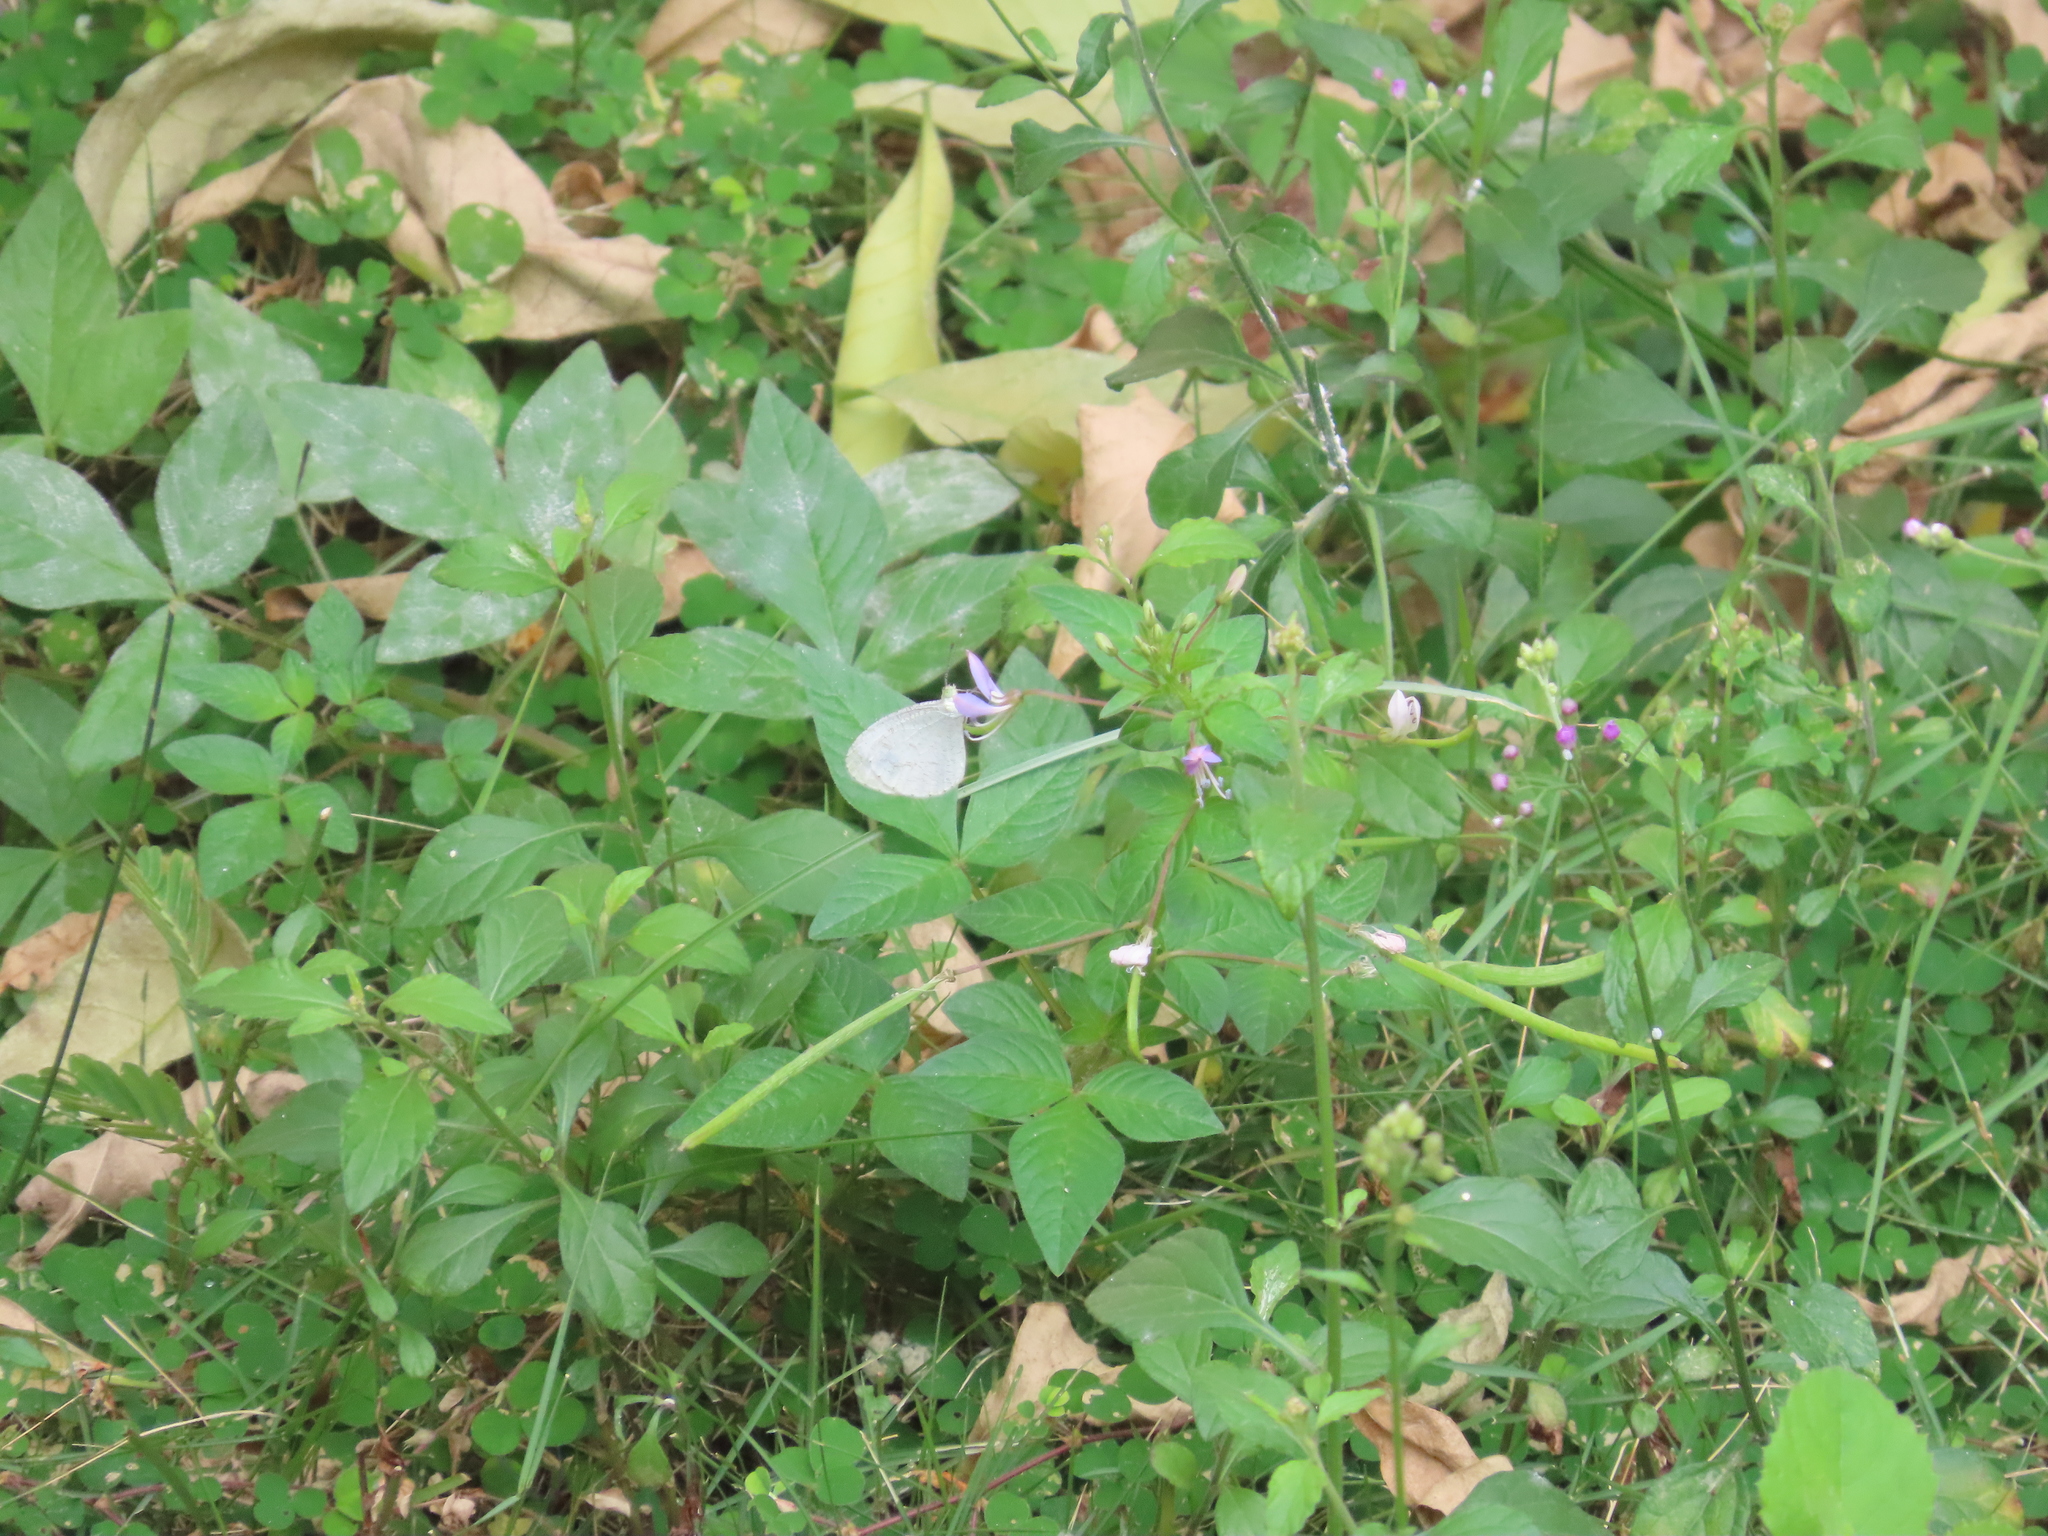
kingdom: Animalia
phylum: Arthropoda
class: Insecta
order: Lepidoptera
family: Pieridae
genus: Leptosia
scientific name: Leptosia nina
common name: Psyche
